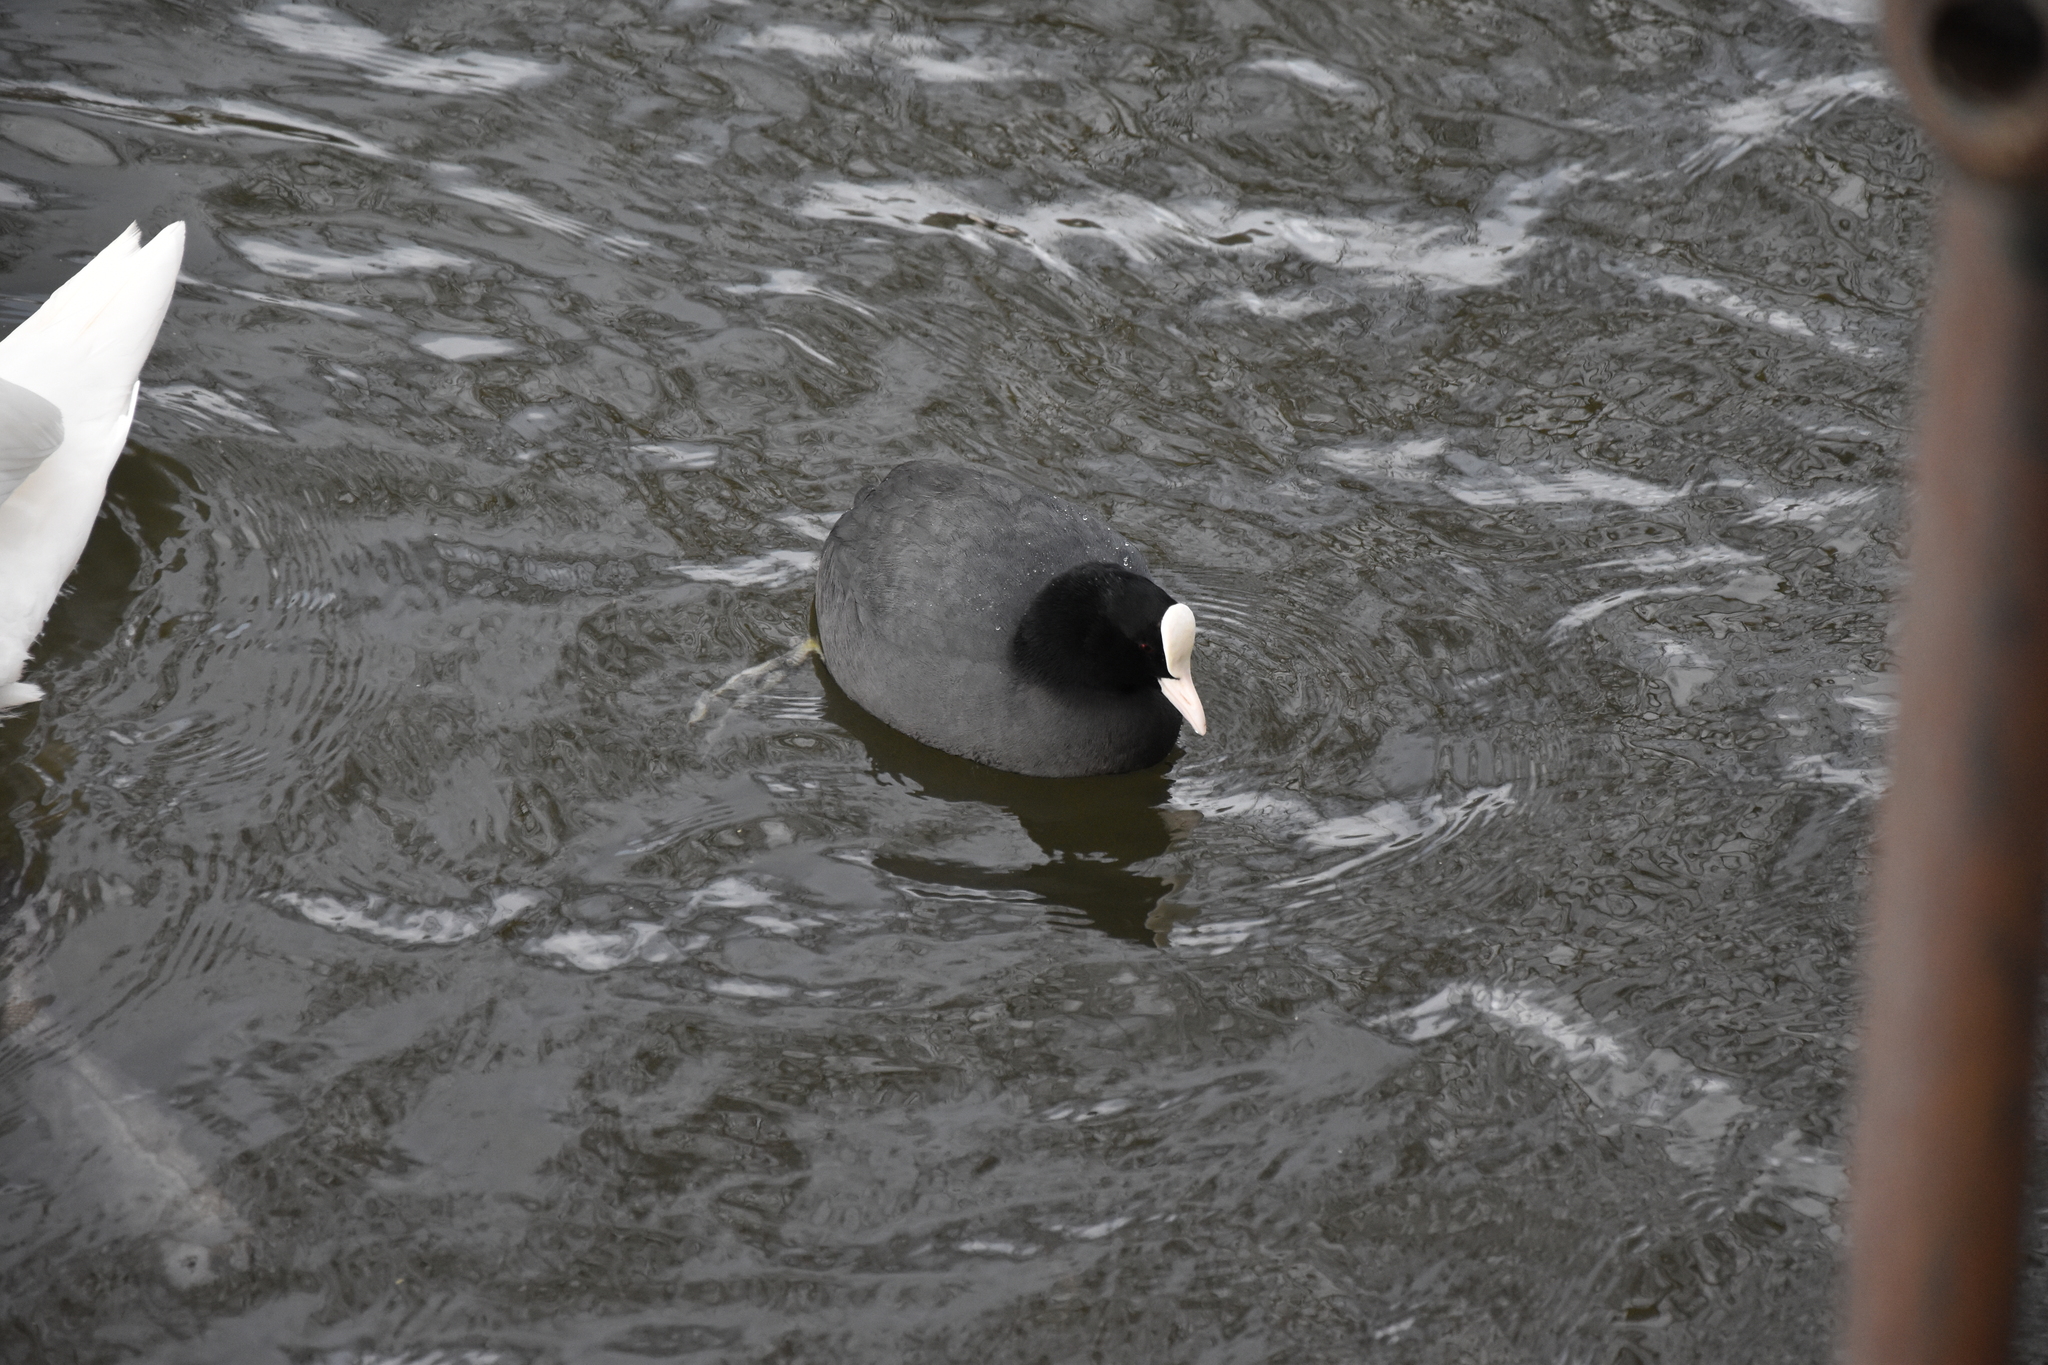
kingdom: Animalia
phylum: Chordata
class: Aves
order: Gruiformes
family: Rallidae
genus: Fulica
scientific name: Fulica atra
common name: Eurasian coot
